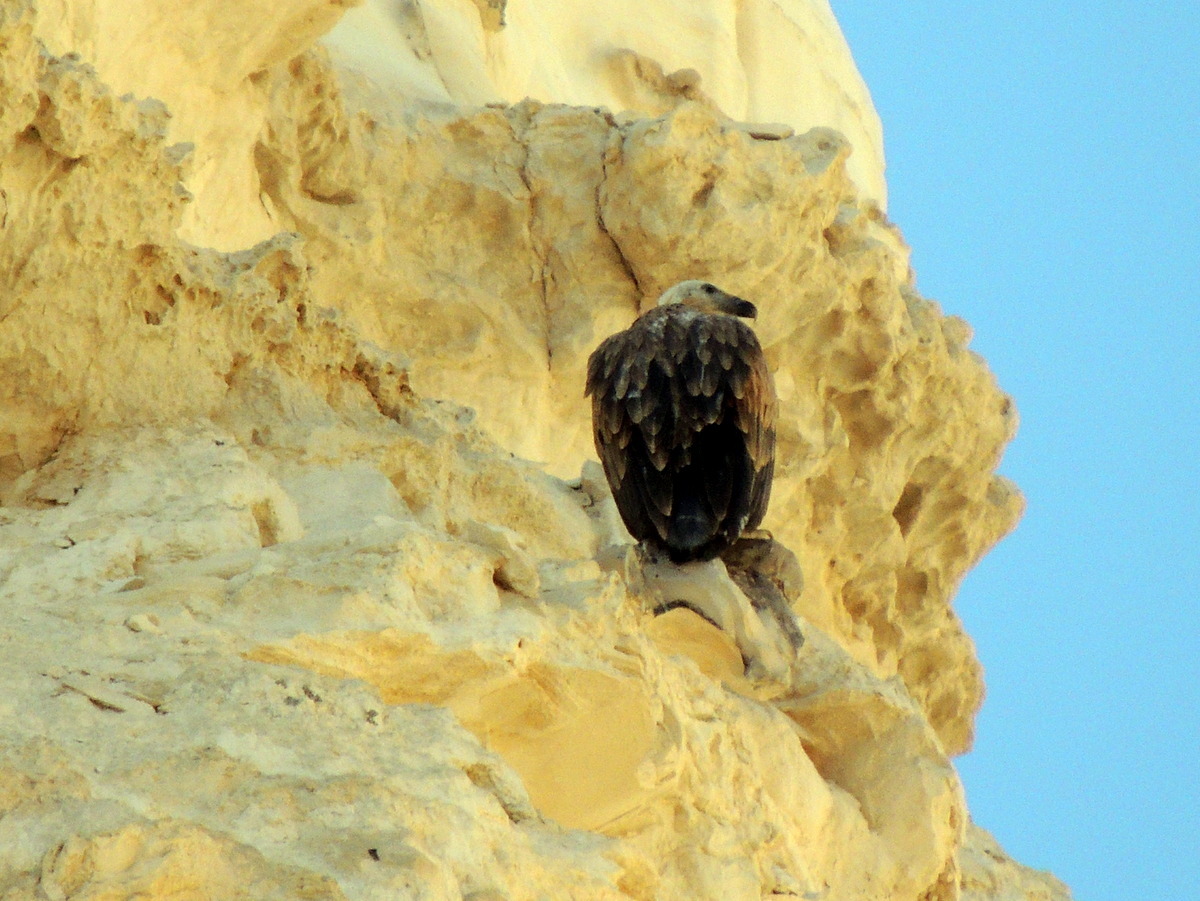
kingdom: Animalia
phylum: Chordata
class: Aves
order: Accipitriformes
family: Accipitridae
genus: Gyps
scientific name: Gyps fulvus
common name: Griffon vulture
